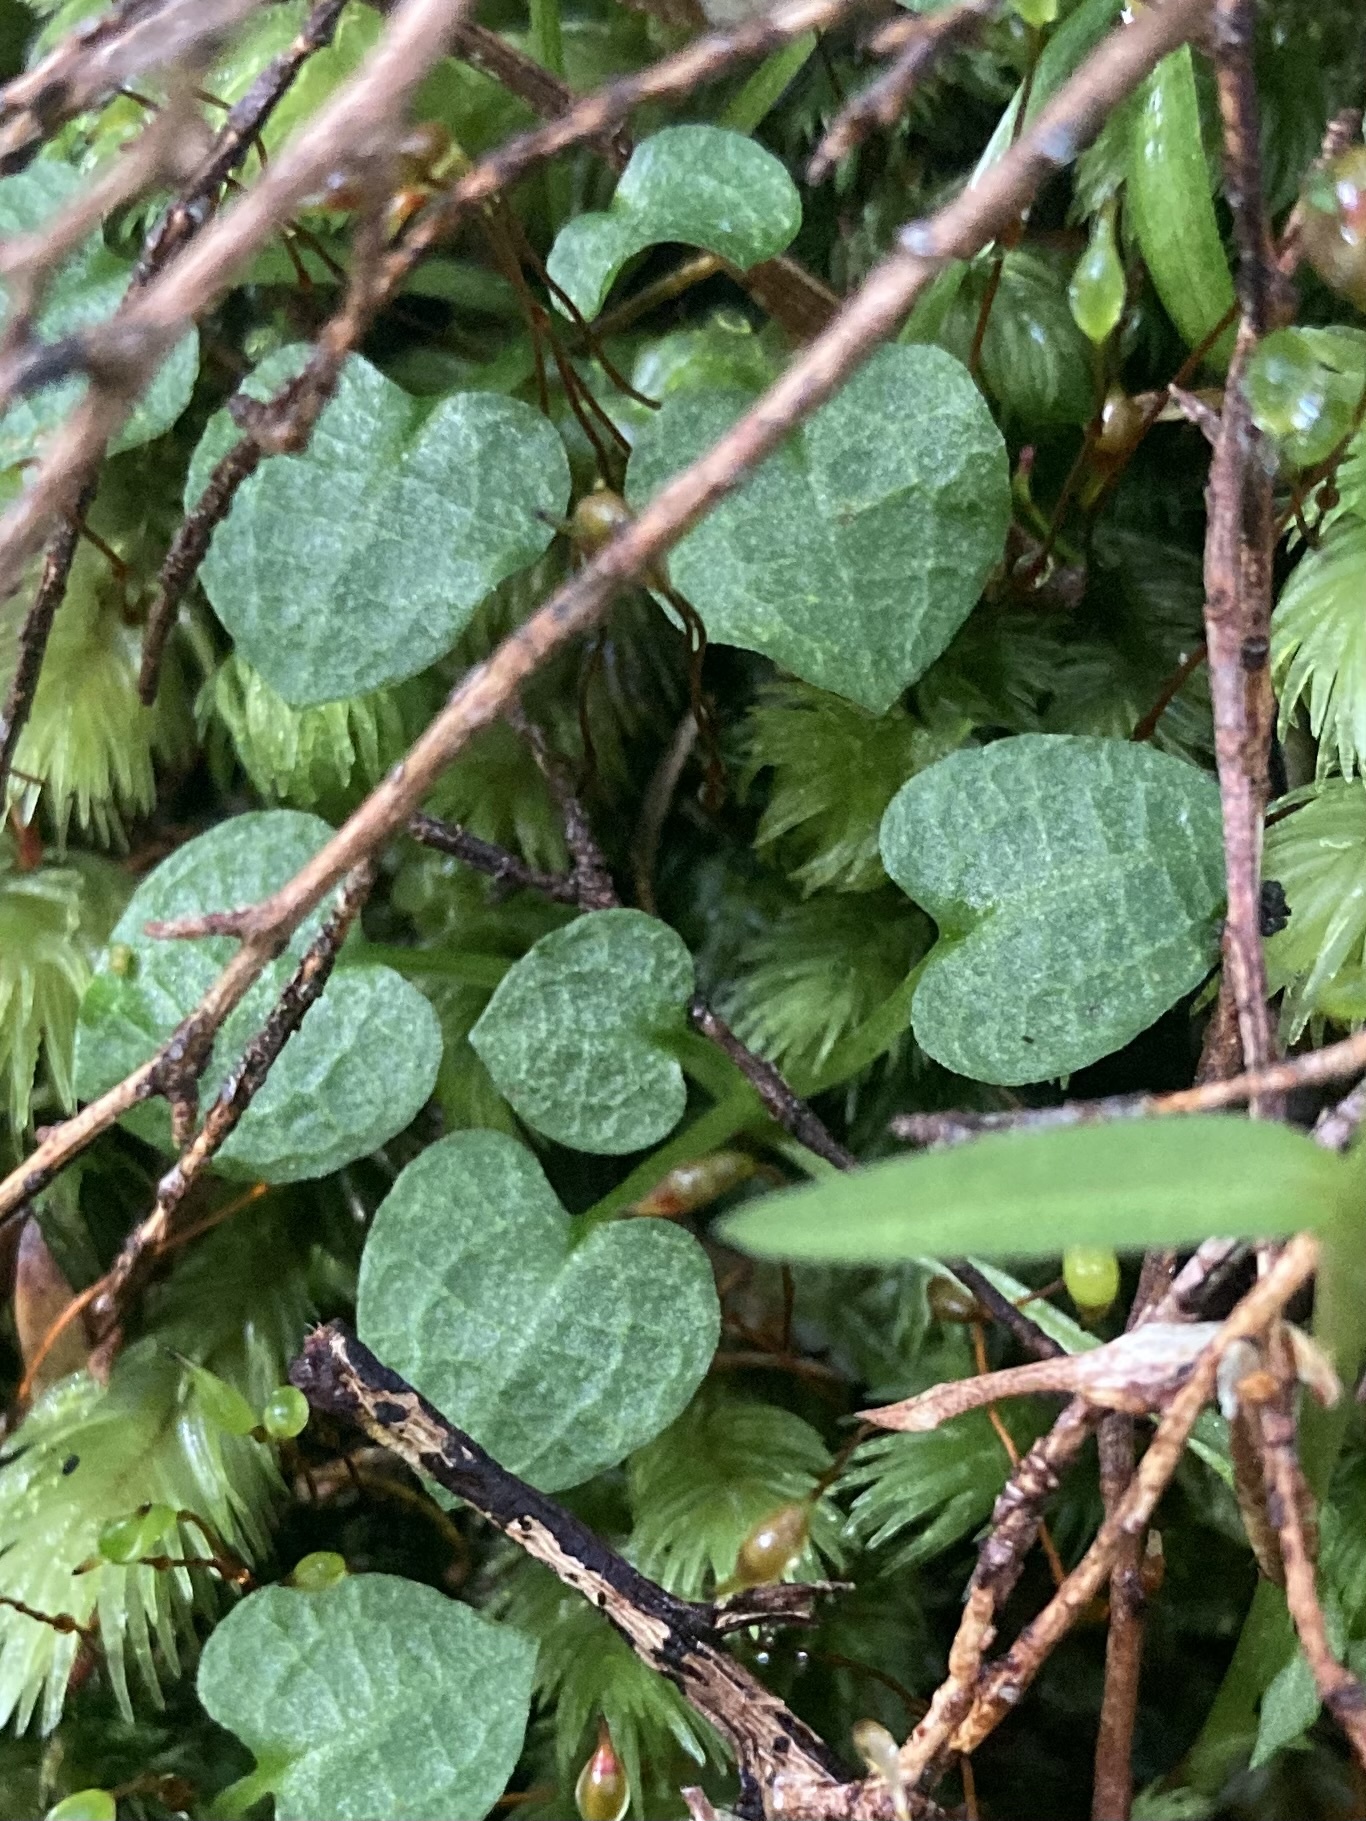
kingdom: Plantae
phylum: Tracheophyta
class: Liliopsida
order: Asparagales
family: Orchidaceae
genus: Pterostylis
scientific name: Pterostylis trullifolia
